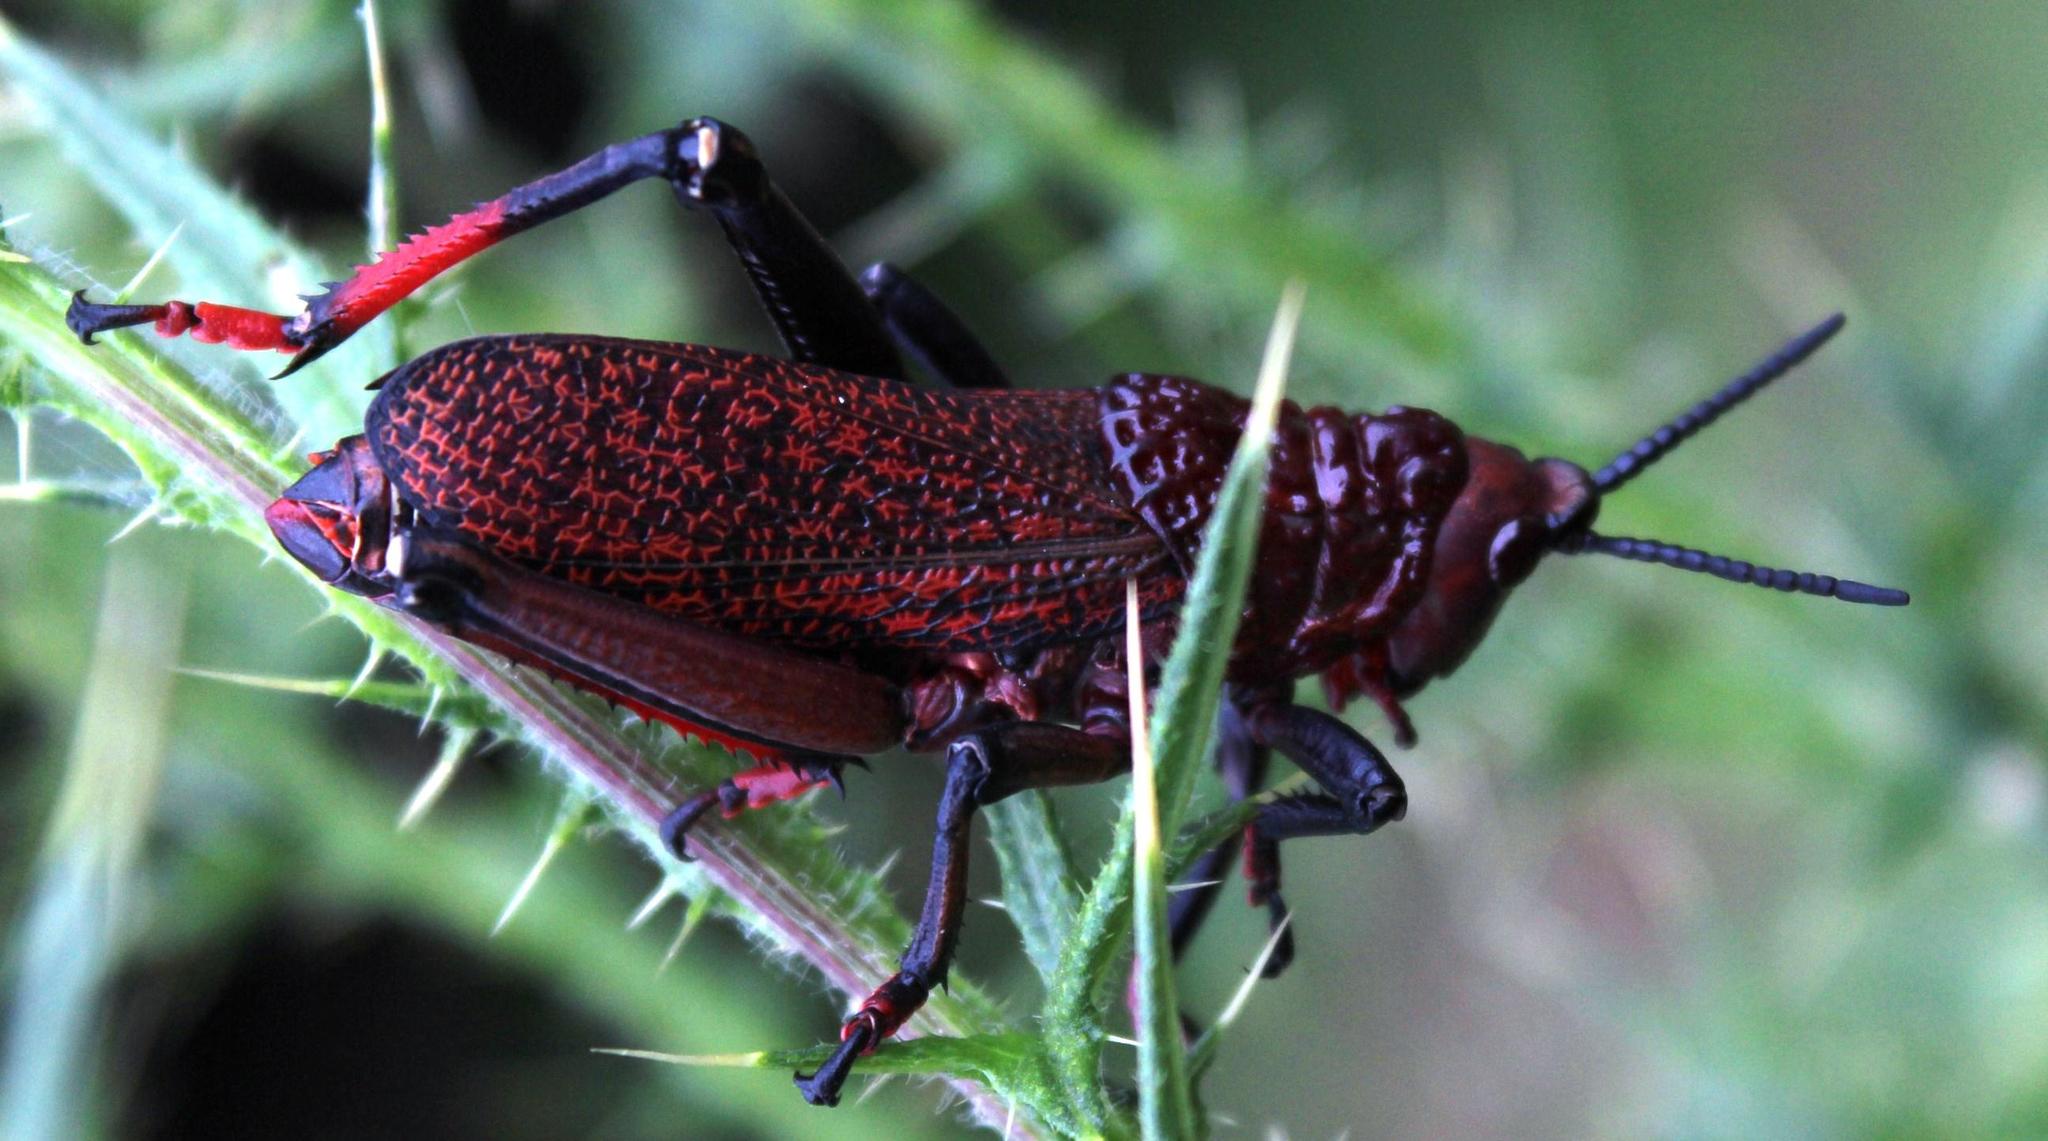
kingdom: Animalia
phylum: Arthropoda
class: Insecta
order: Orthoptera
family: Pyrgomorphidae
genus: Dictyophorus
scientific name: Dictyophorus spumans
